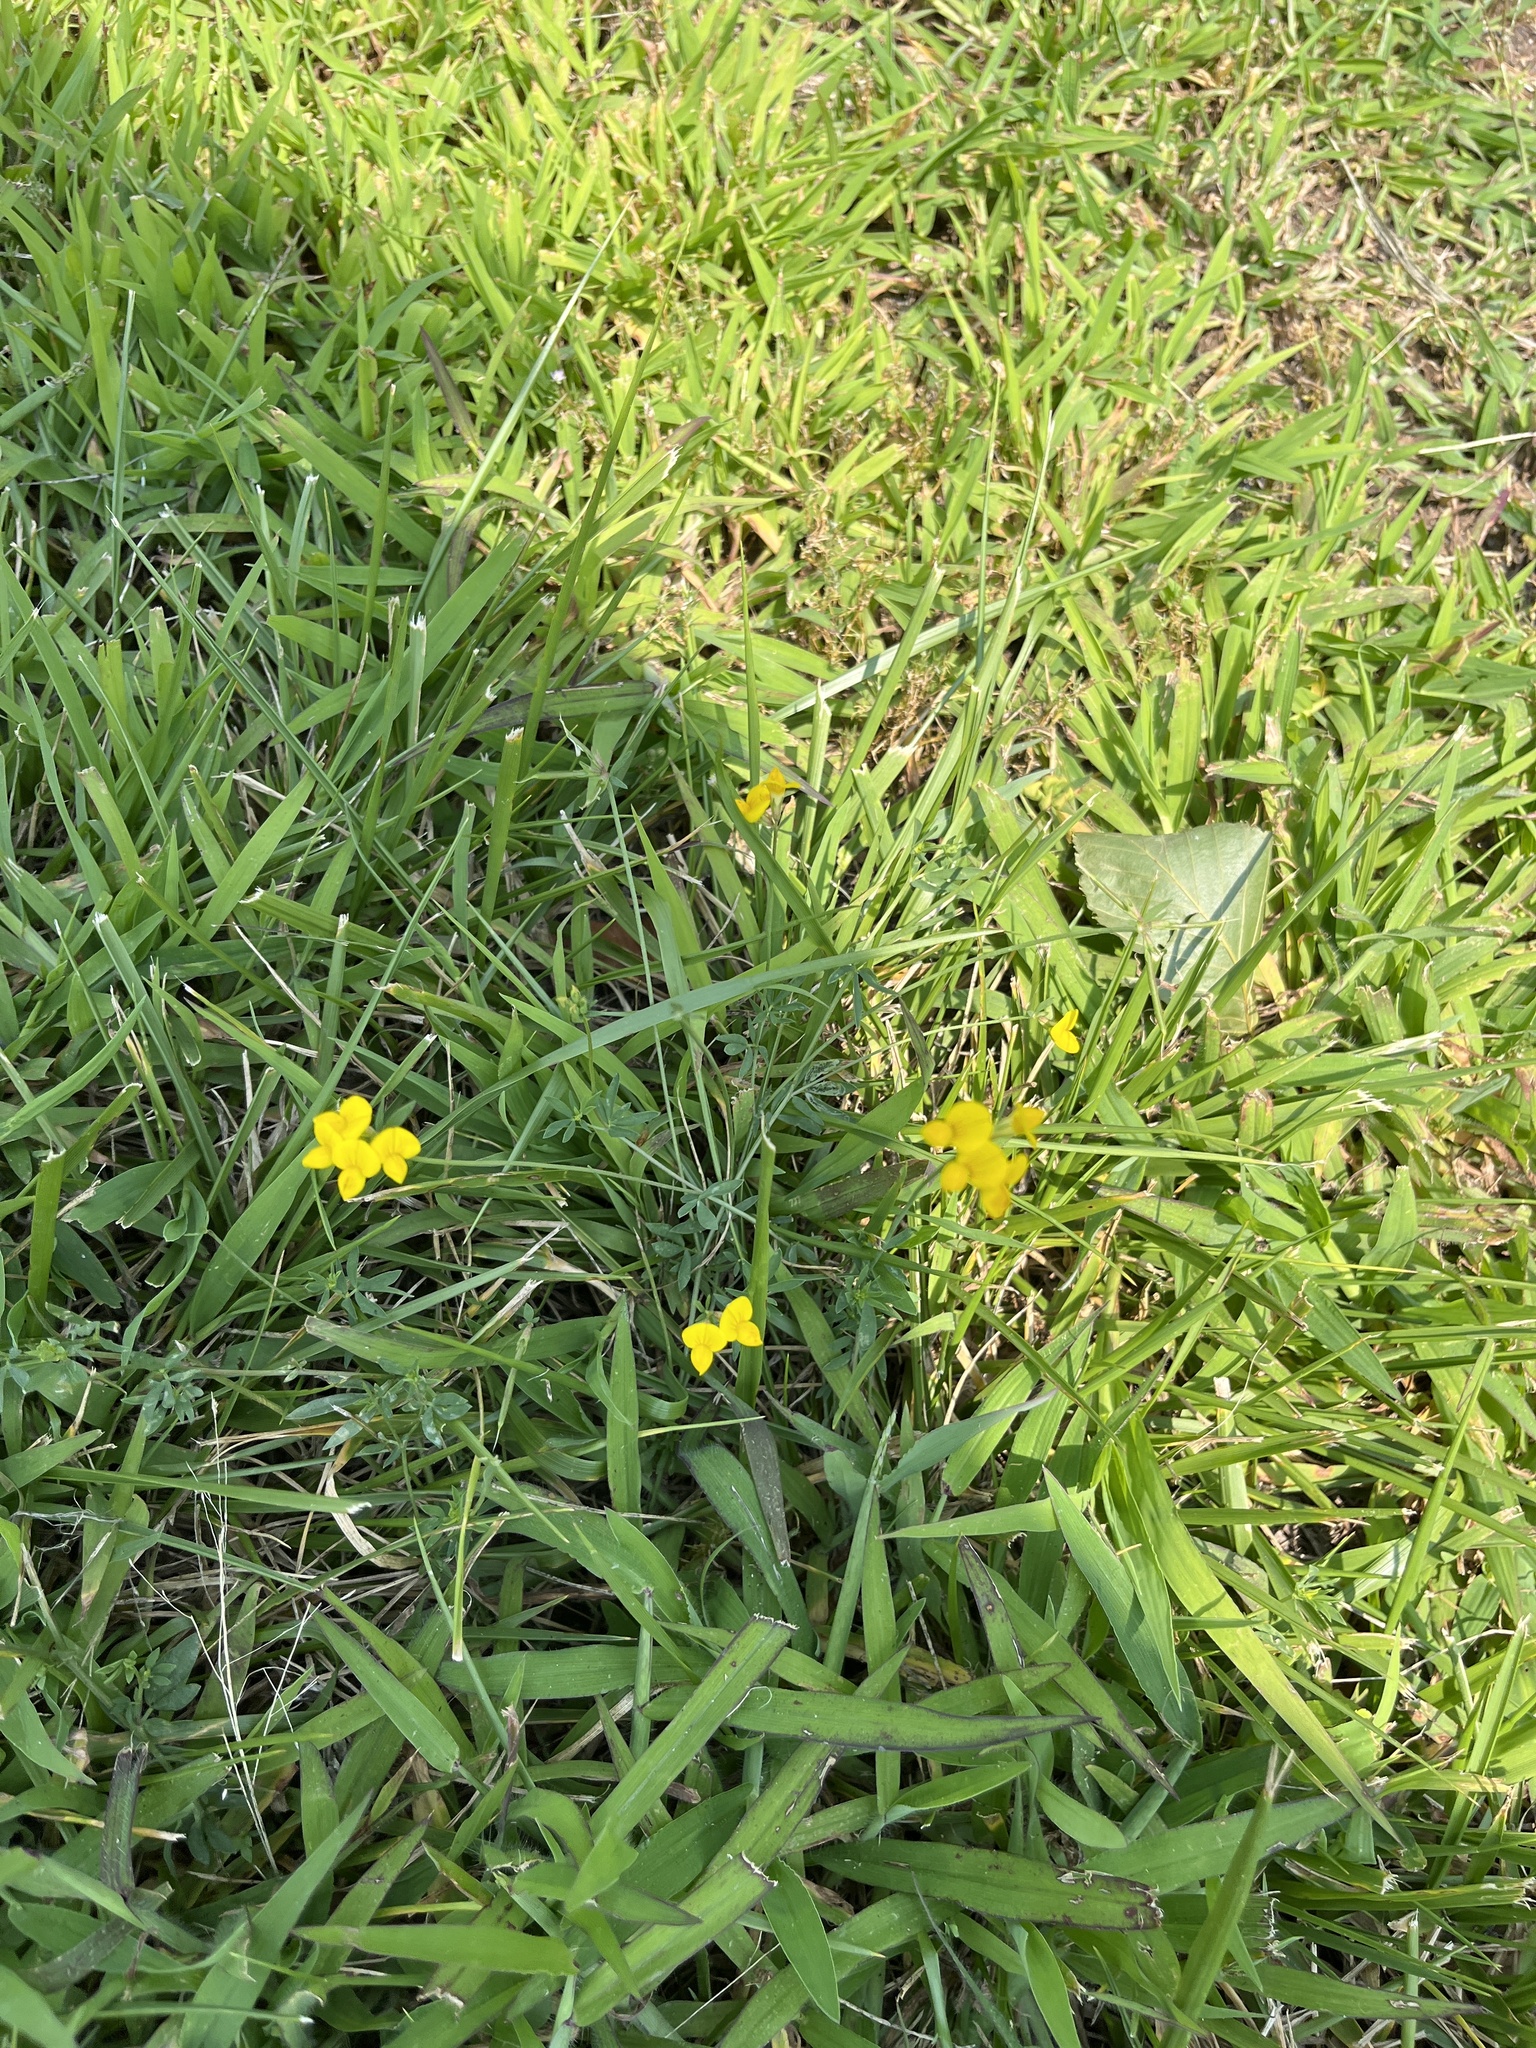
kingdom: Plantae
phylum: Tracheophyta
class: Magnoliopsida
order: Fabales
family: Fabaceae
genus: Lotus
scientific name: Lotus corniculatus
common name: Common bird's-foot-trefoil
